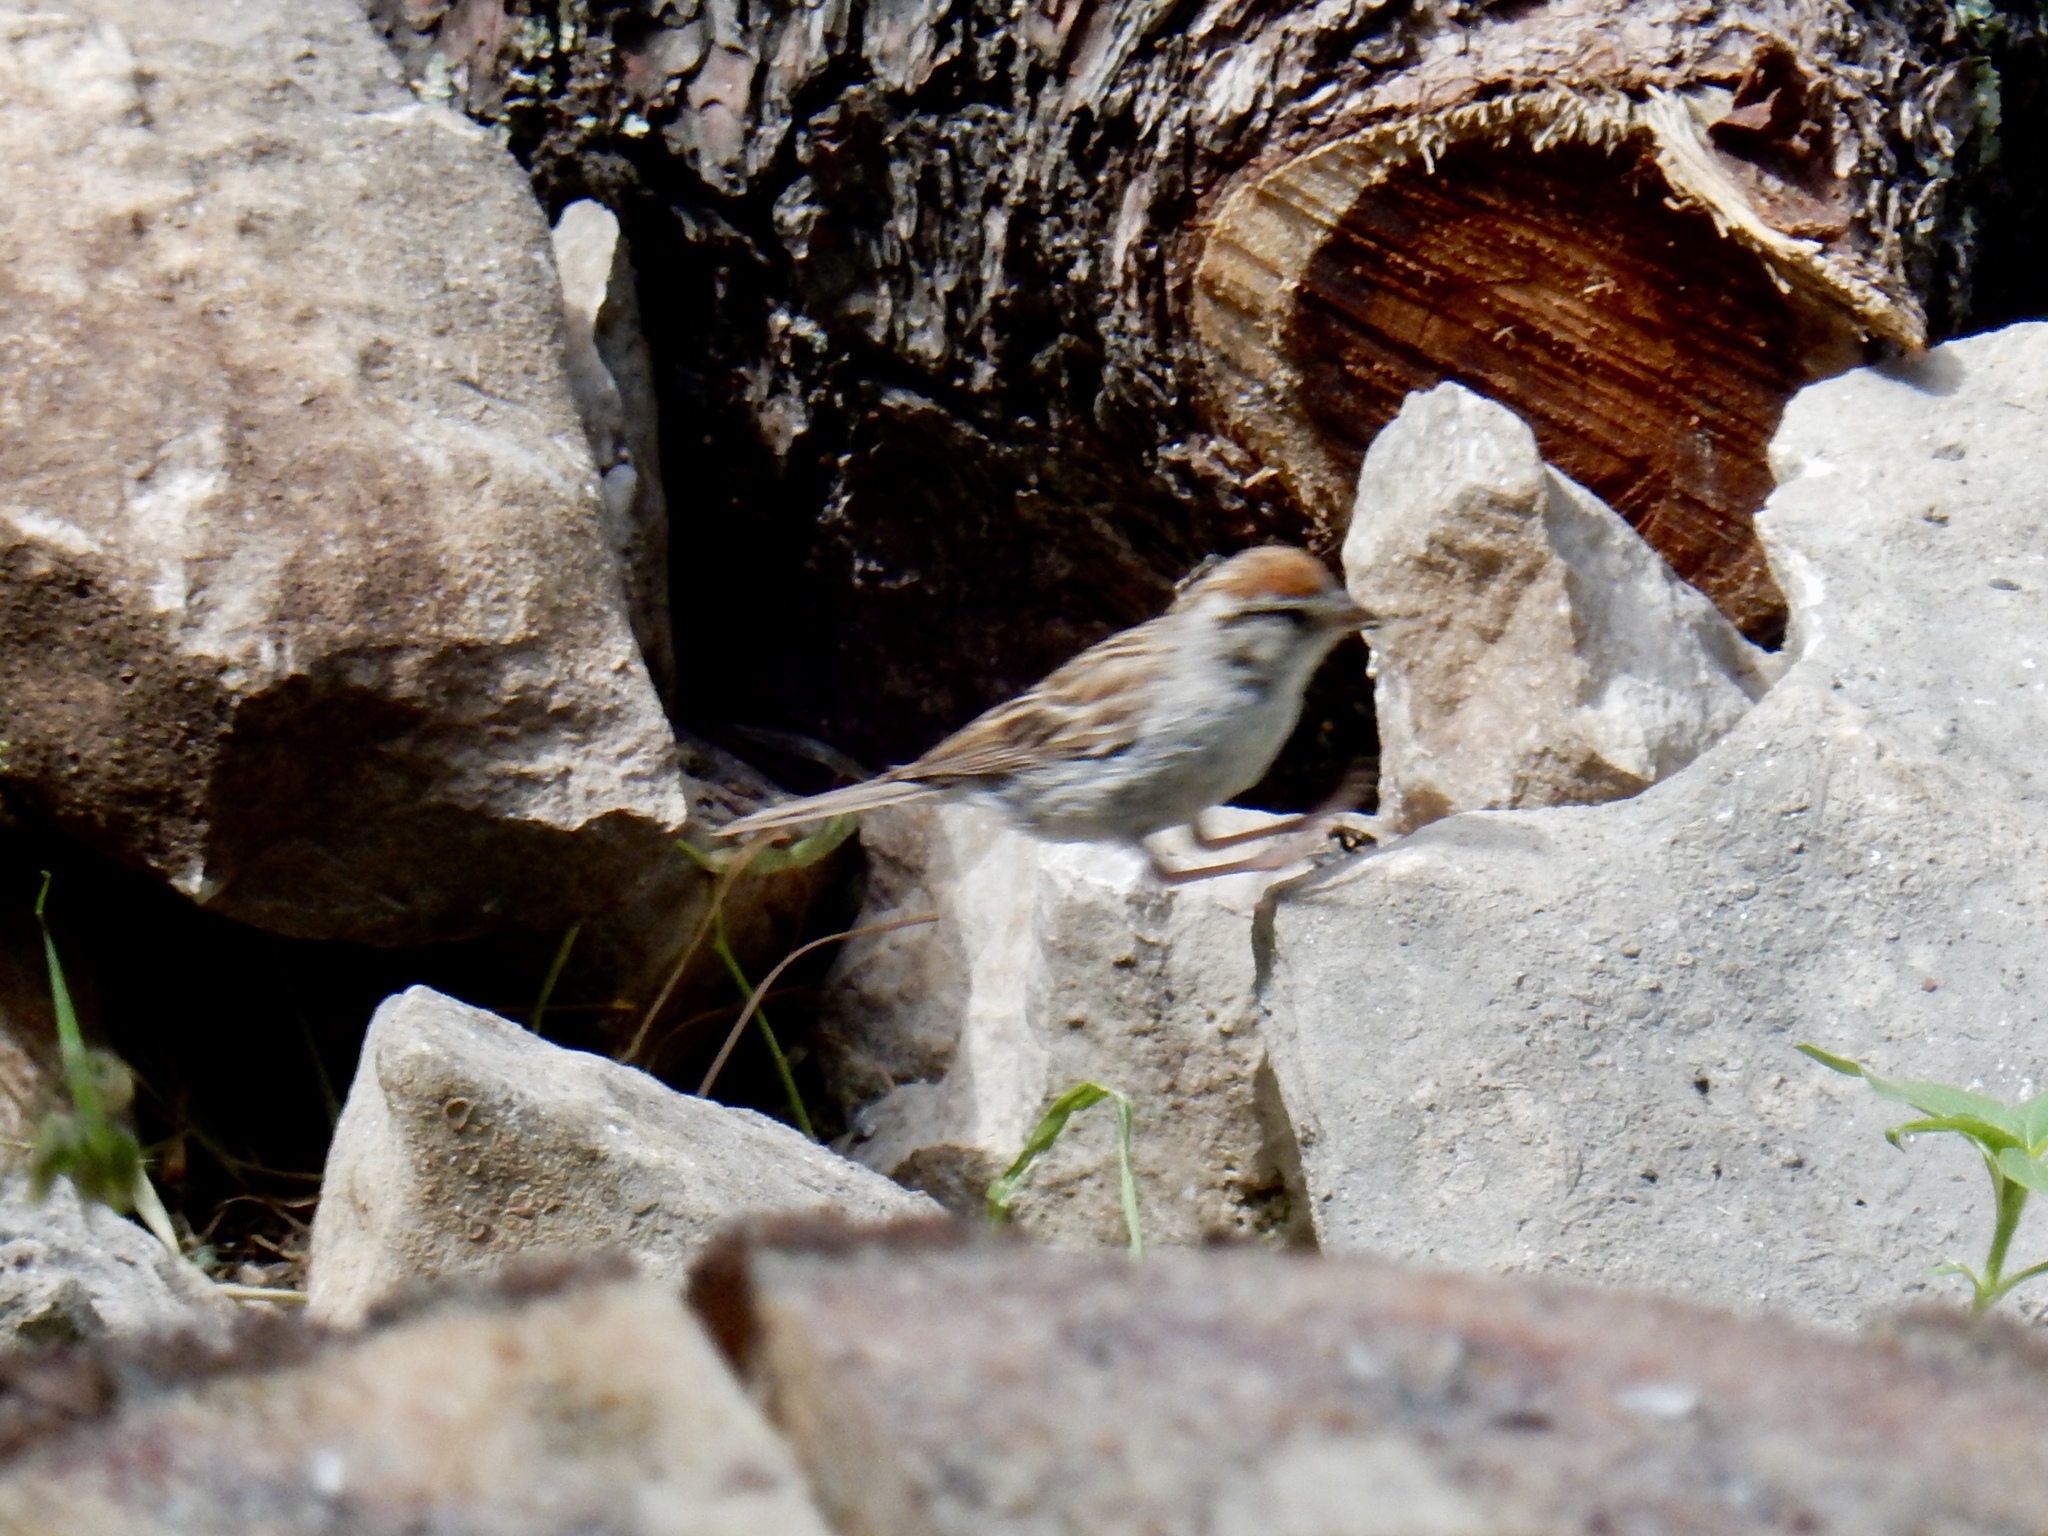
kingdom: Animalia
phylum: Chordata
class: Aves
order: Passeriformes
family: Passerellidae
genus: Spizella
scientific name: Spizella passerina
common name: Chipping sparrow
